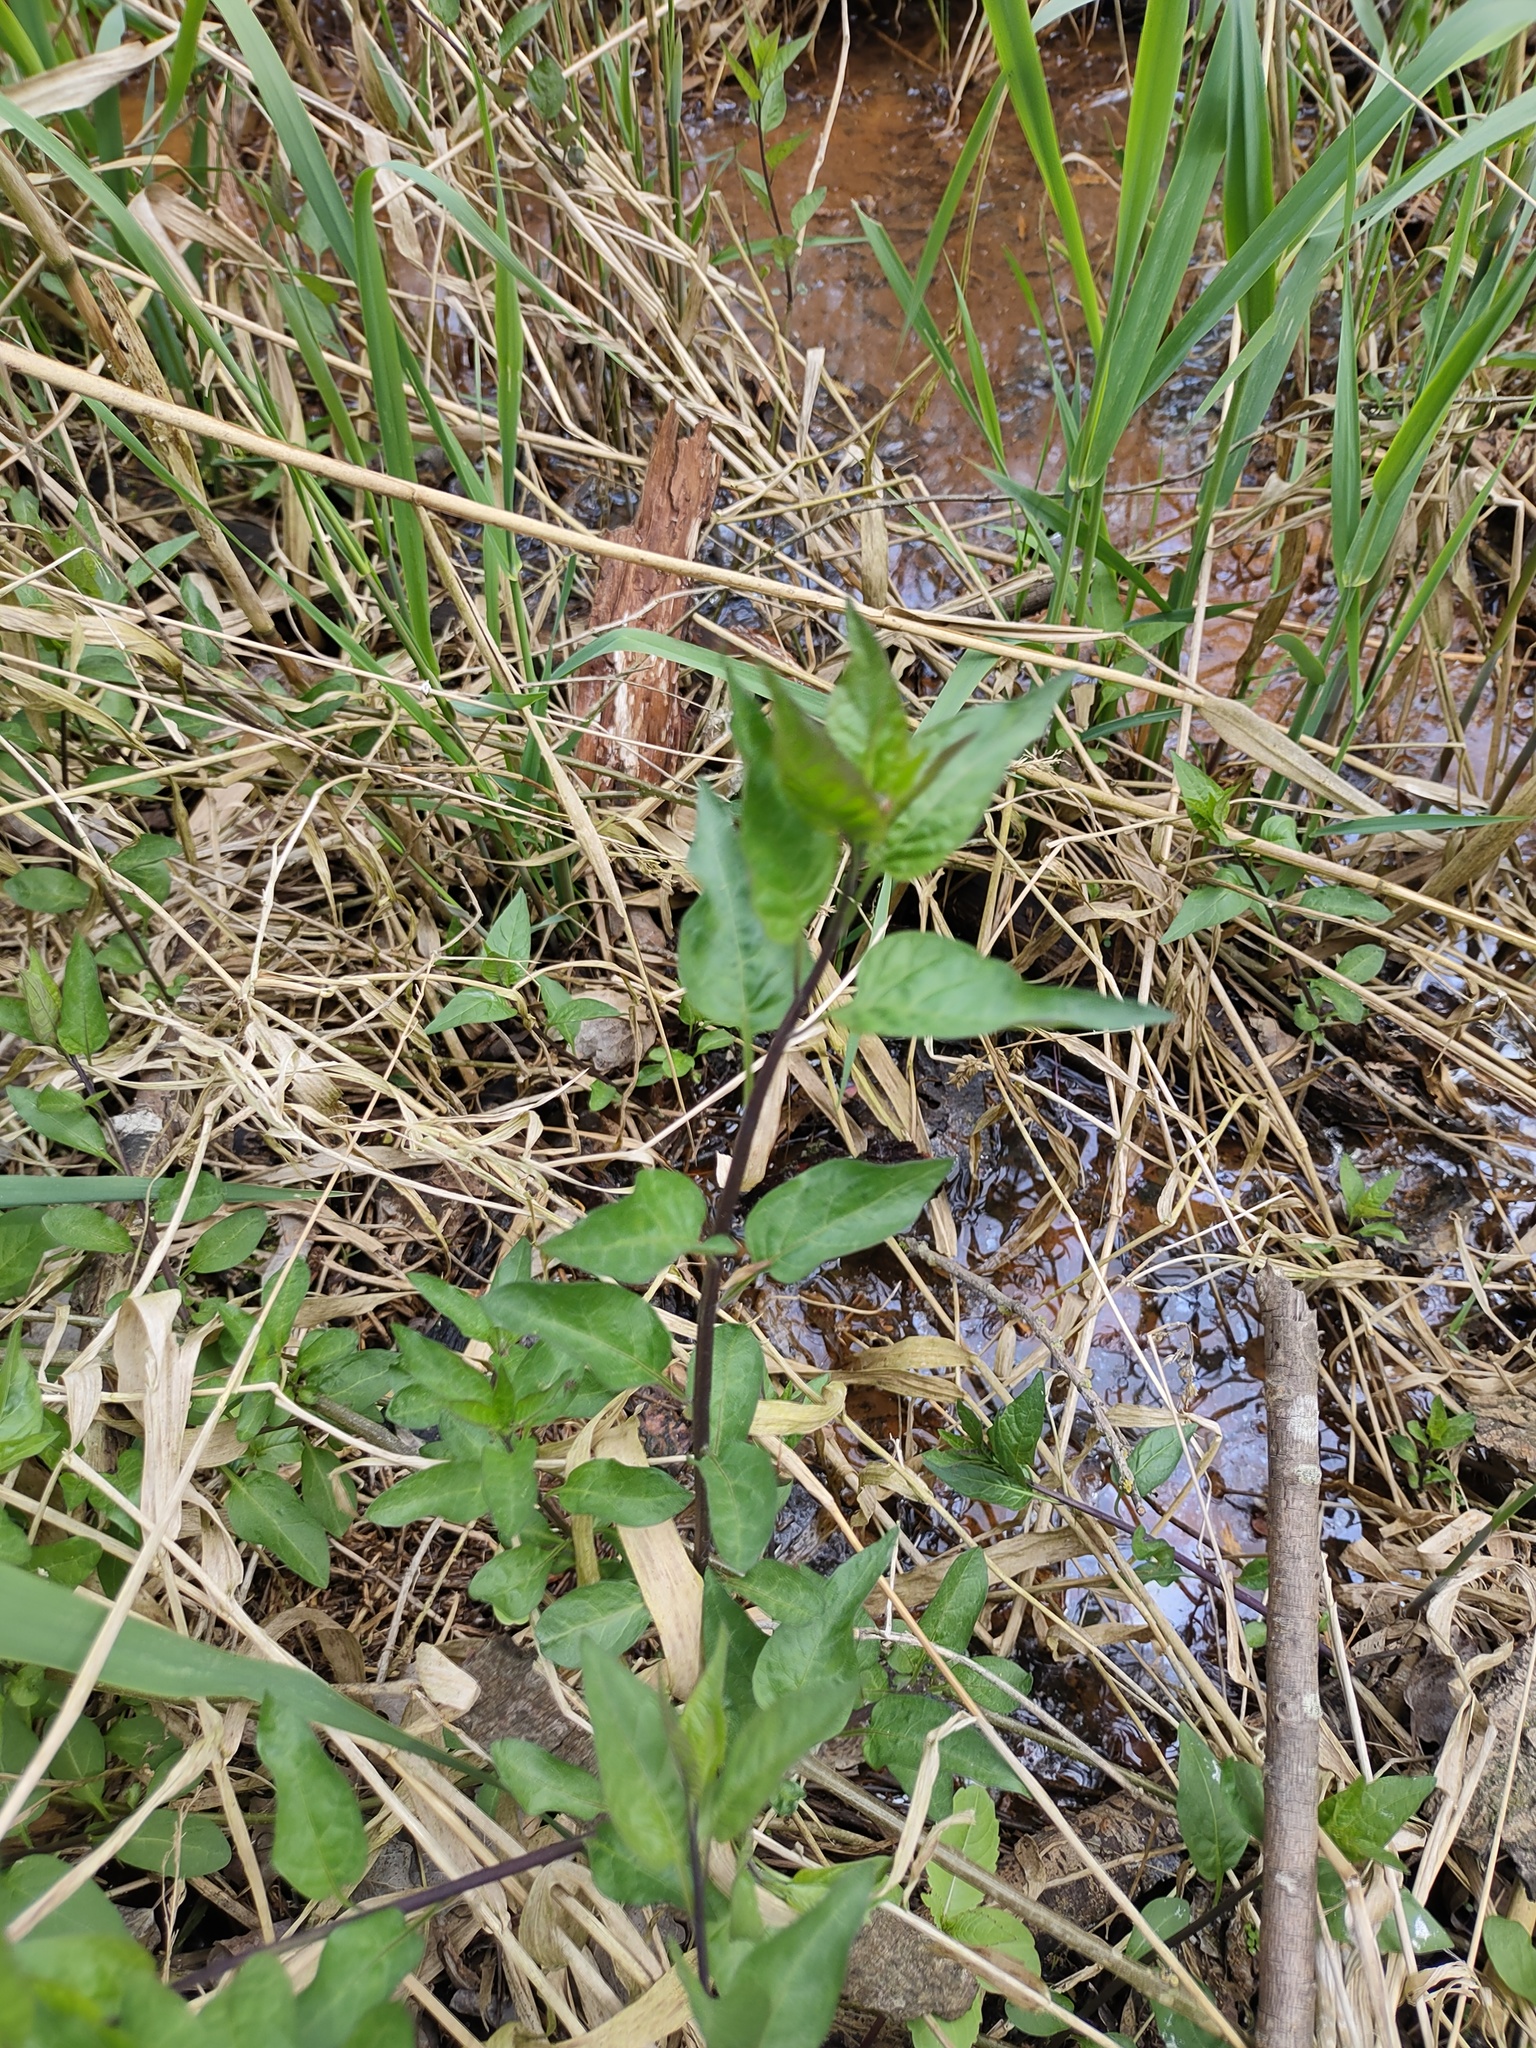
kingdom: Plantae
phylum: Tracheophyta
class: Magnoliopsida
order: Solanales
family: Solanaceae
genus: Solanum
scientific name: Solanum dulcamara
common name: Climbing nightshade
